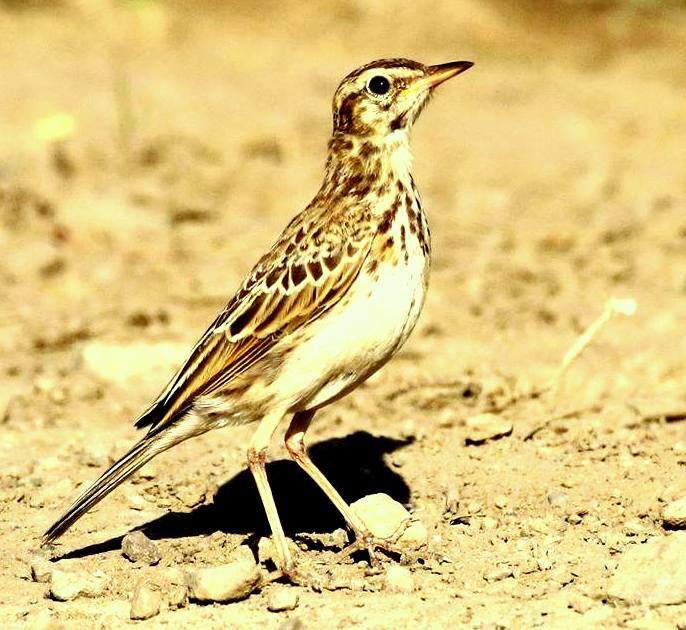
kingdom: Animalia
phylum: Chordata
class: Aves
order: Passeriformes
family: Motacillidae
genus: Anthus
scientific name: Anthus cinnamomeus
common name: African pipit
